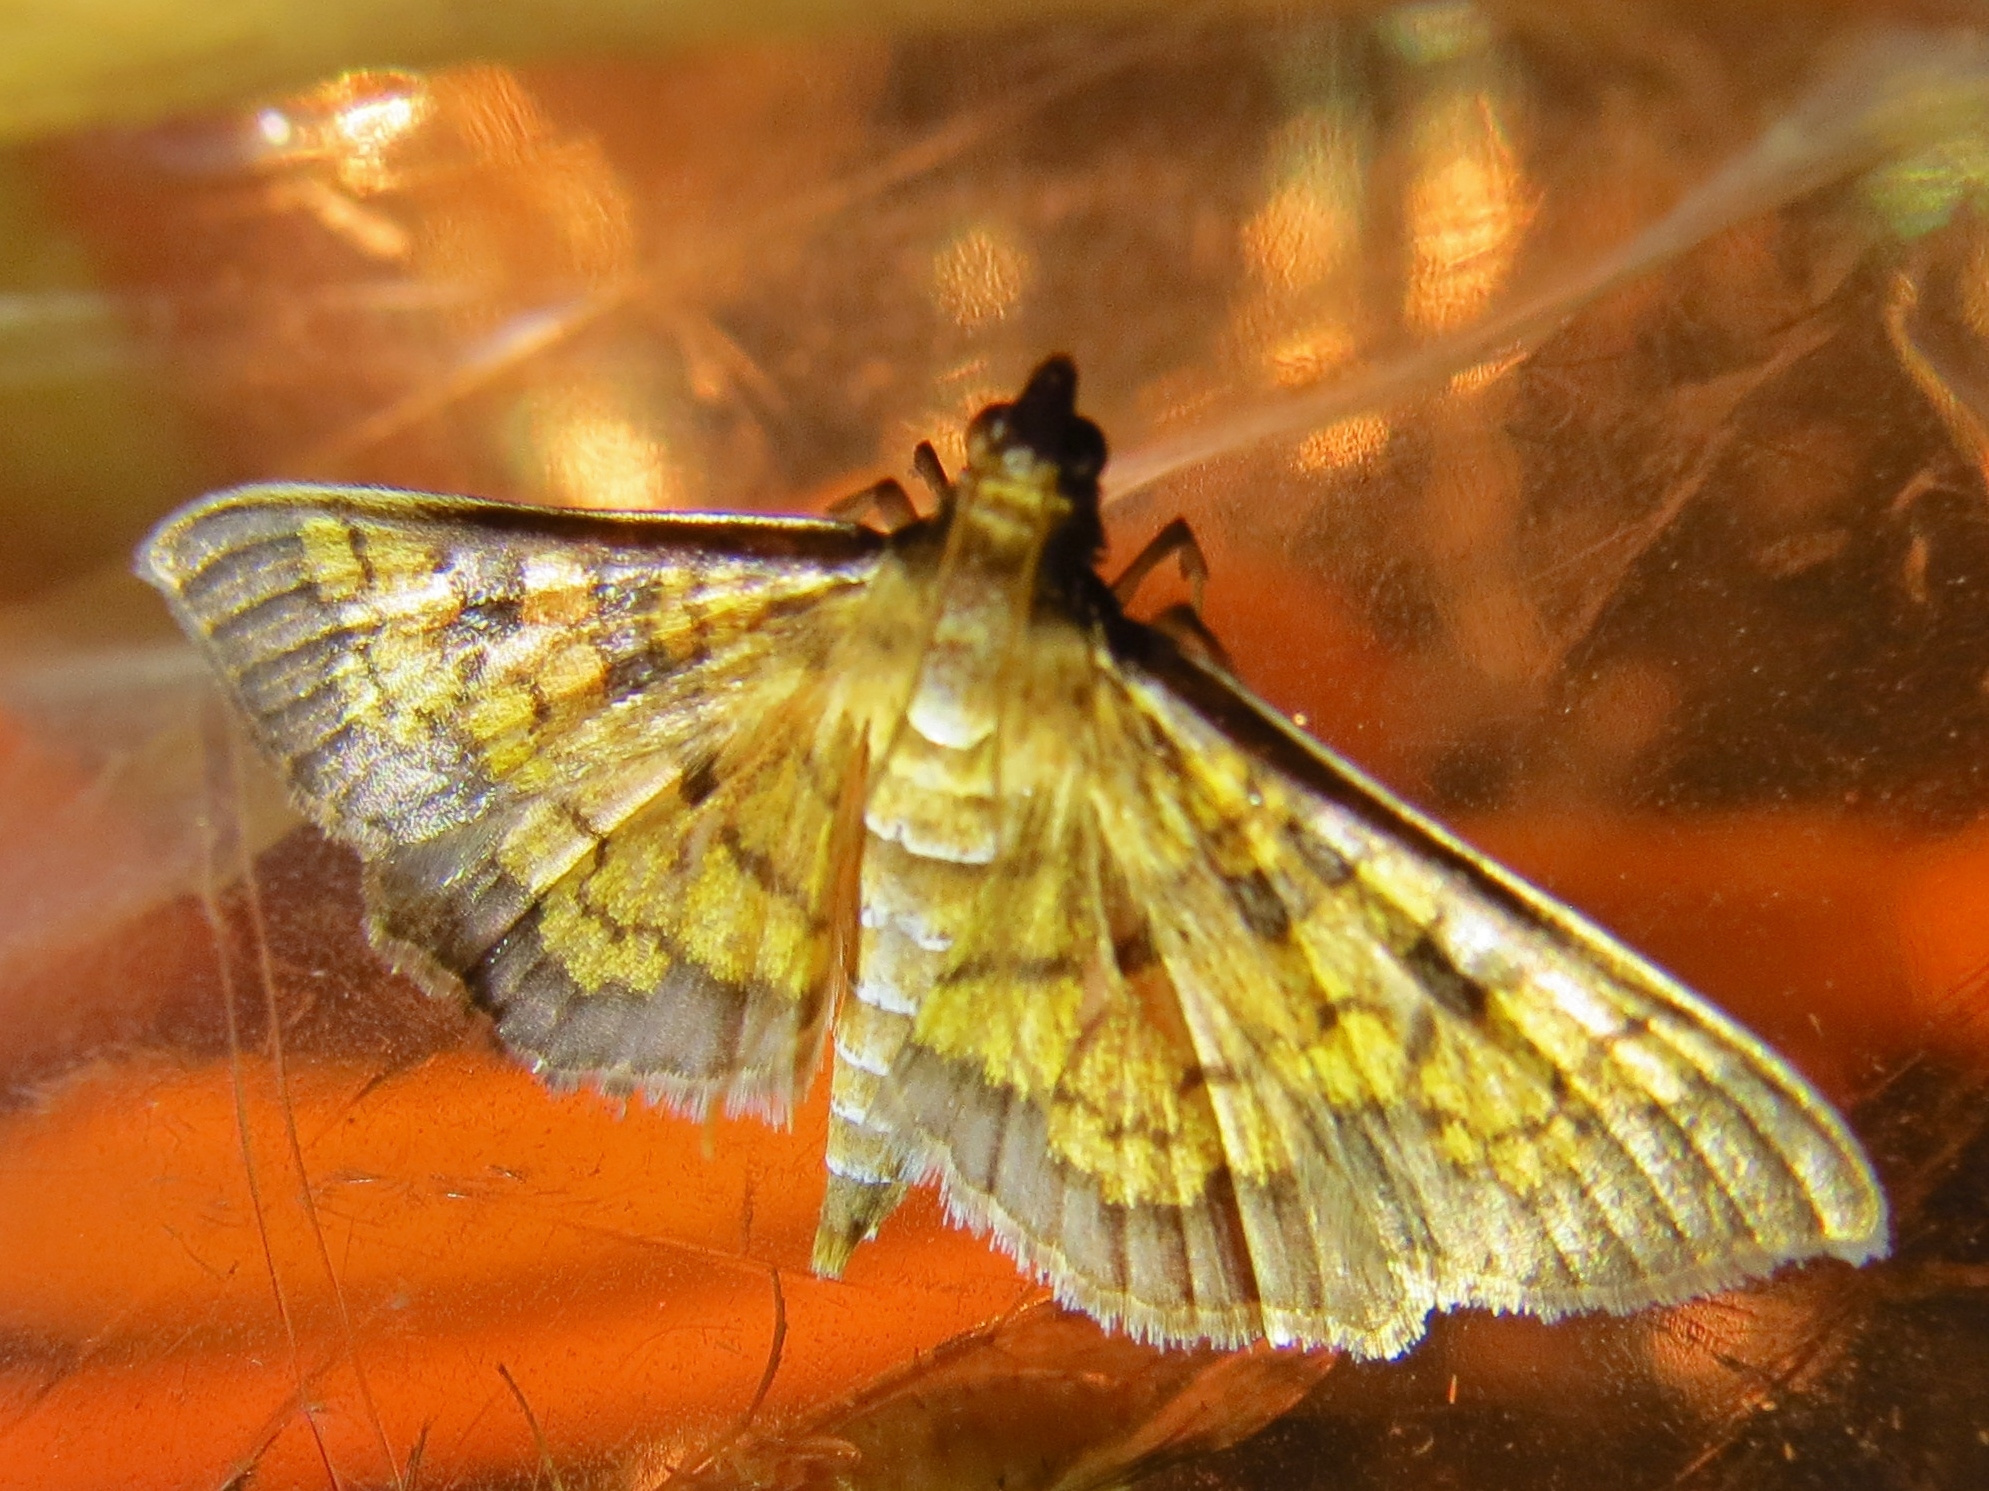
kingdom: Animalia
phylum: Arthropoda
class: Insecta
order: Lepidoptera
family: Crambidae
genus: Epipagis
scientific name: Epipagis adipaloides
